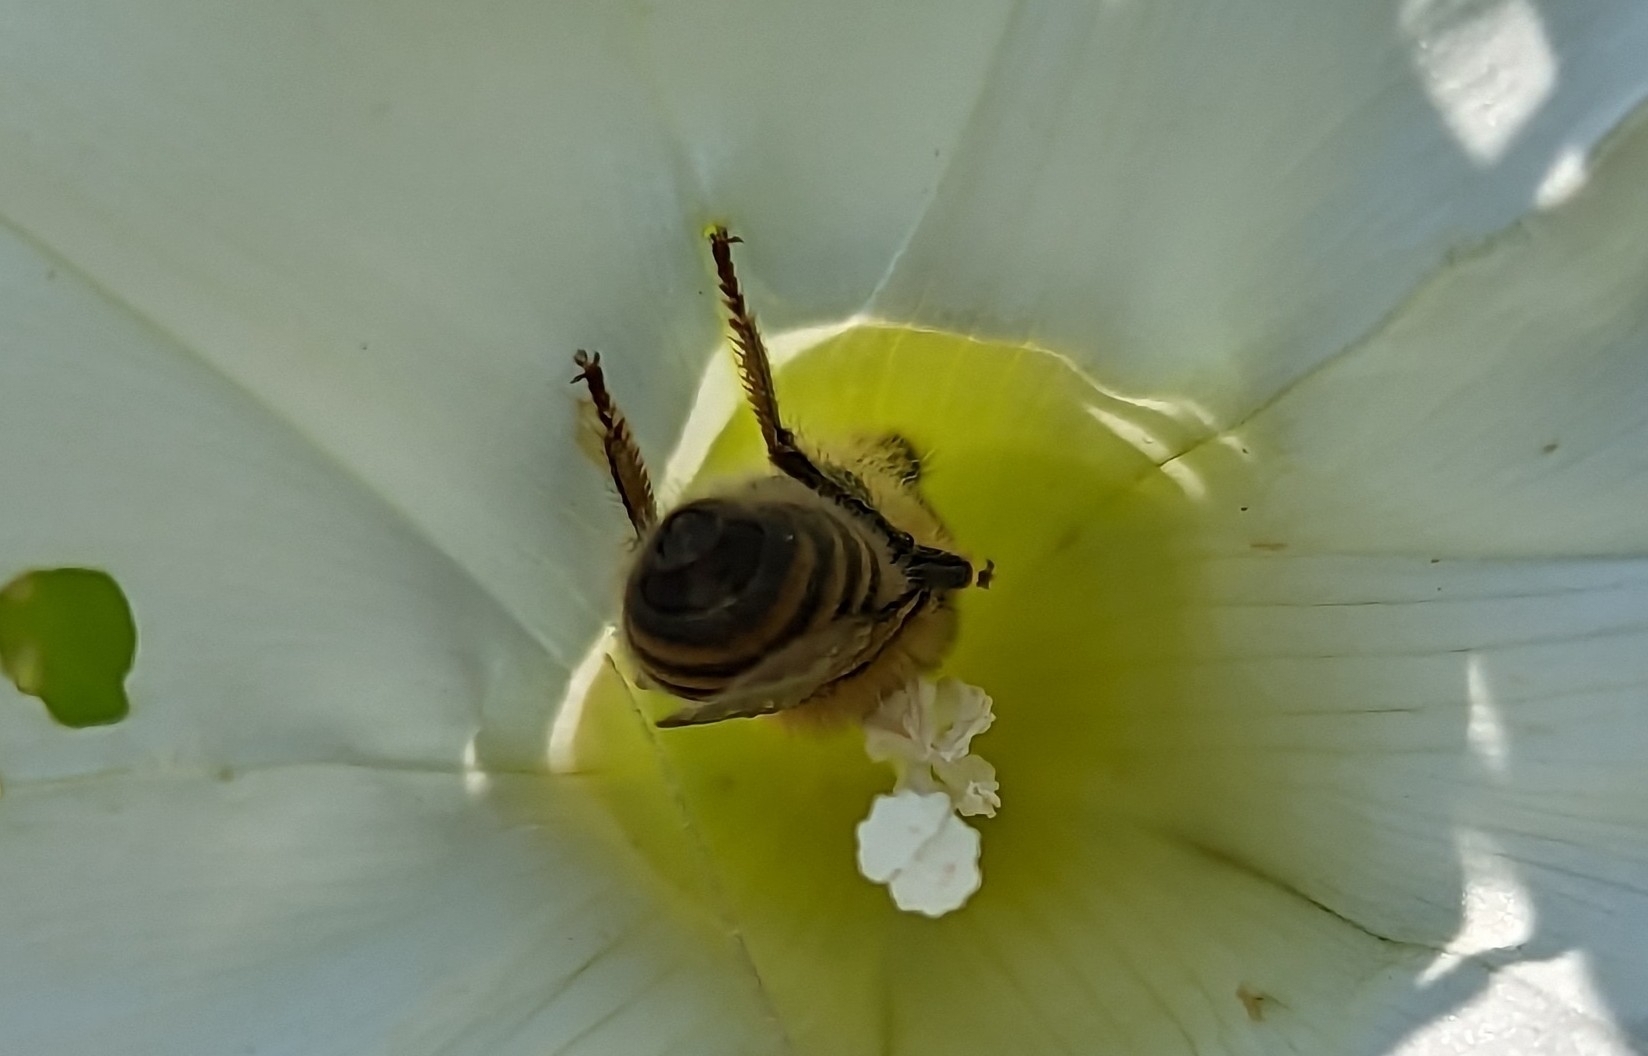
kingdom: Animalia
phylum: Arthropoda
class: Insecta
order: Hymenoptera
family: Apidae
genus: Apis
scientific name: Apis mellifera
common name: Honey bee
